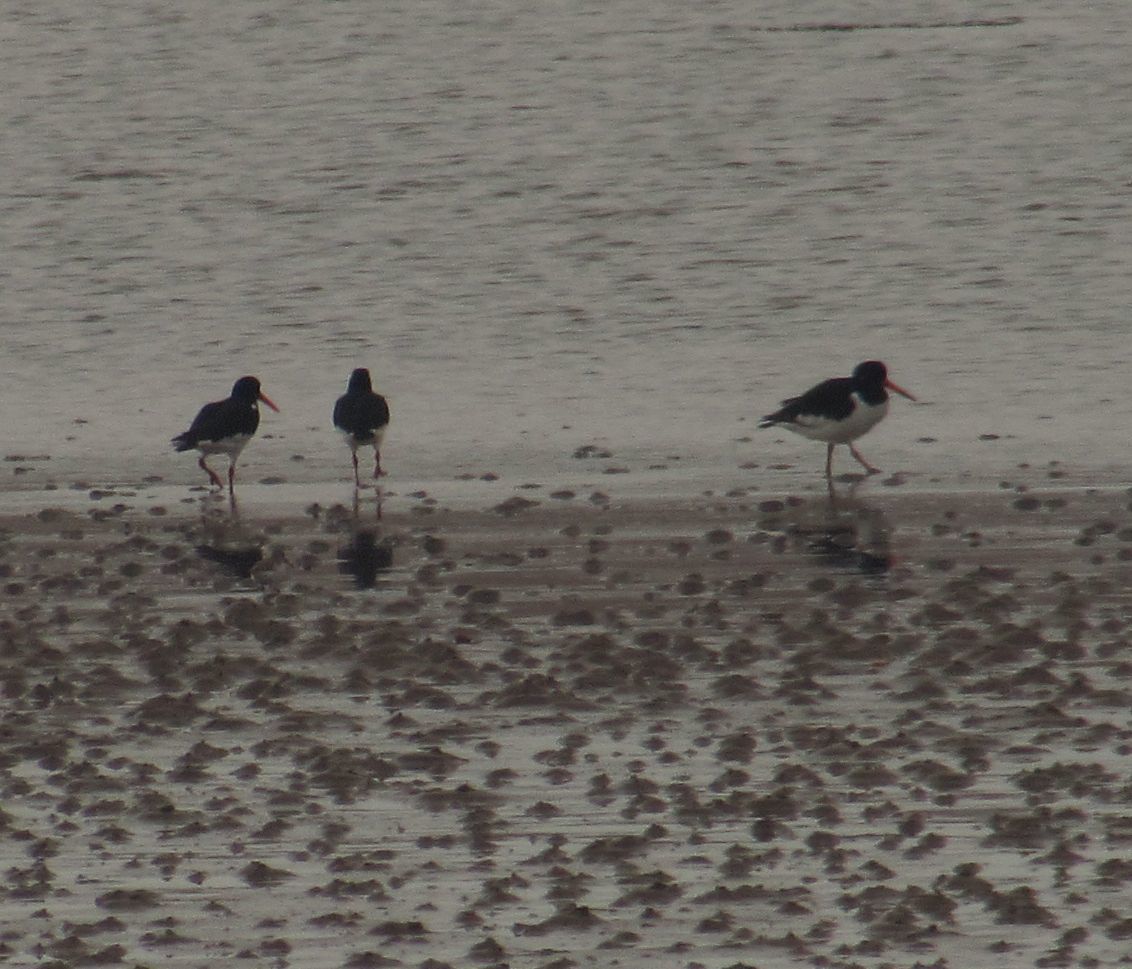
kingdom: Animalia
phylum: Chordata
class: Aves
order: Charadriiformes
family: Haematopodidae
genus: Haematopus
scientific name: Haematopus ostralegus
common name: Eurasian oystercatcher
